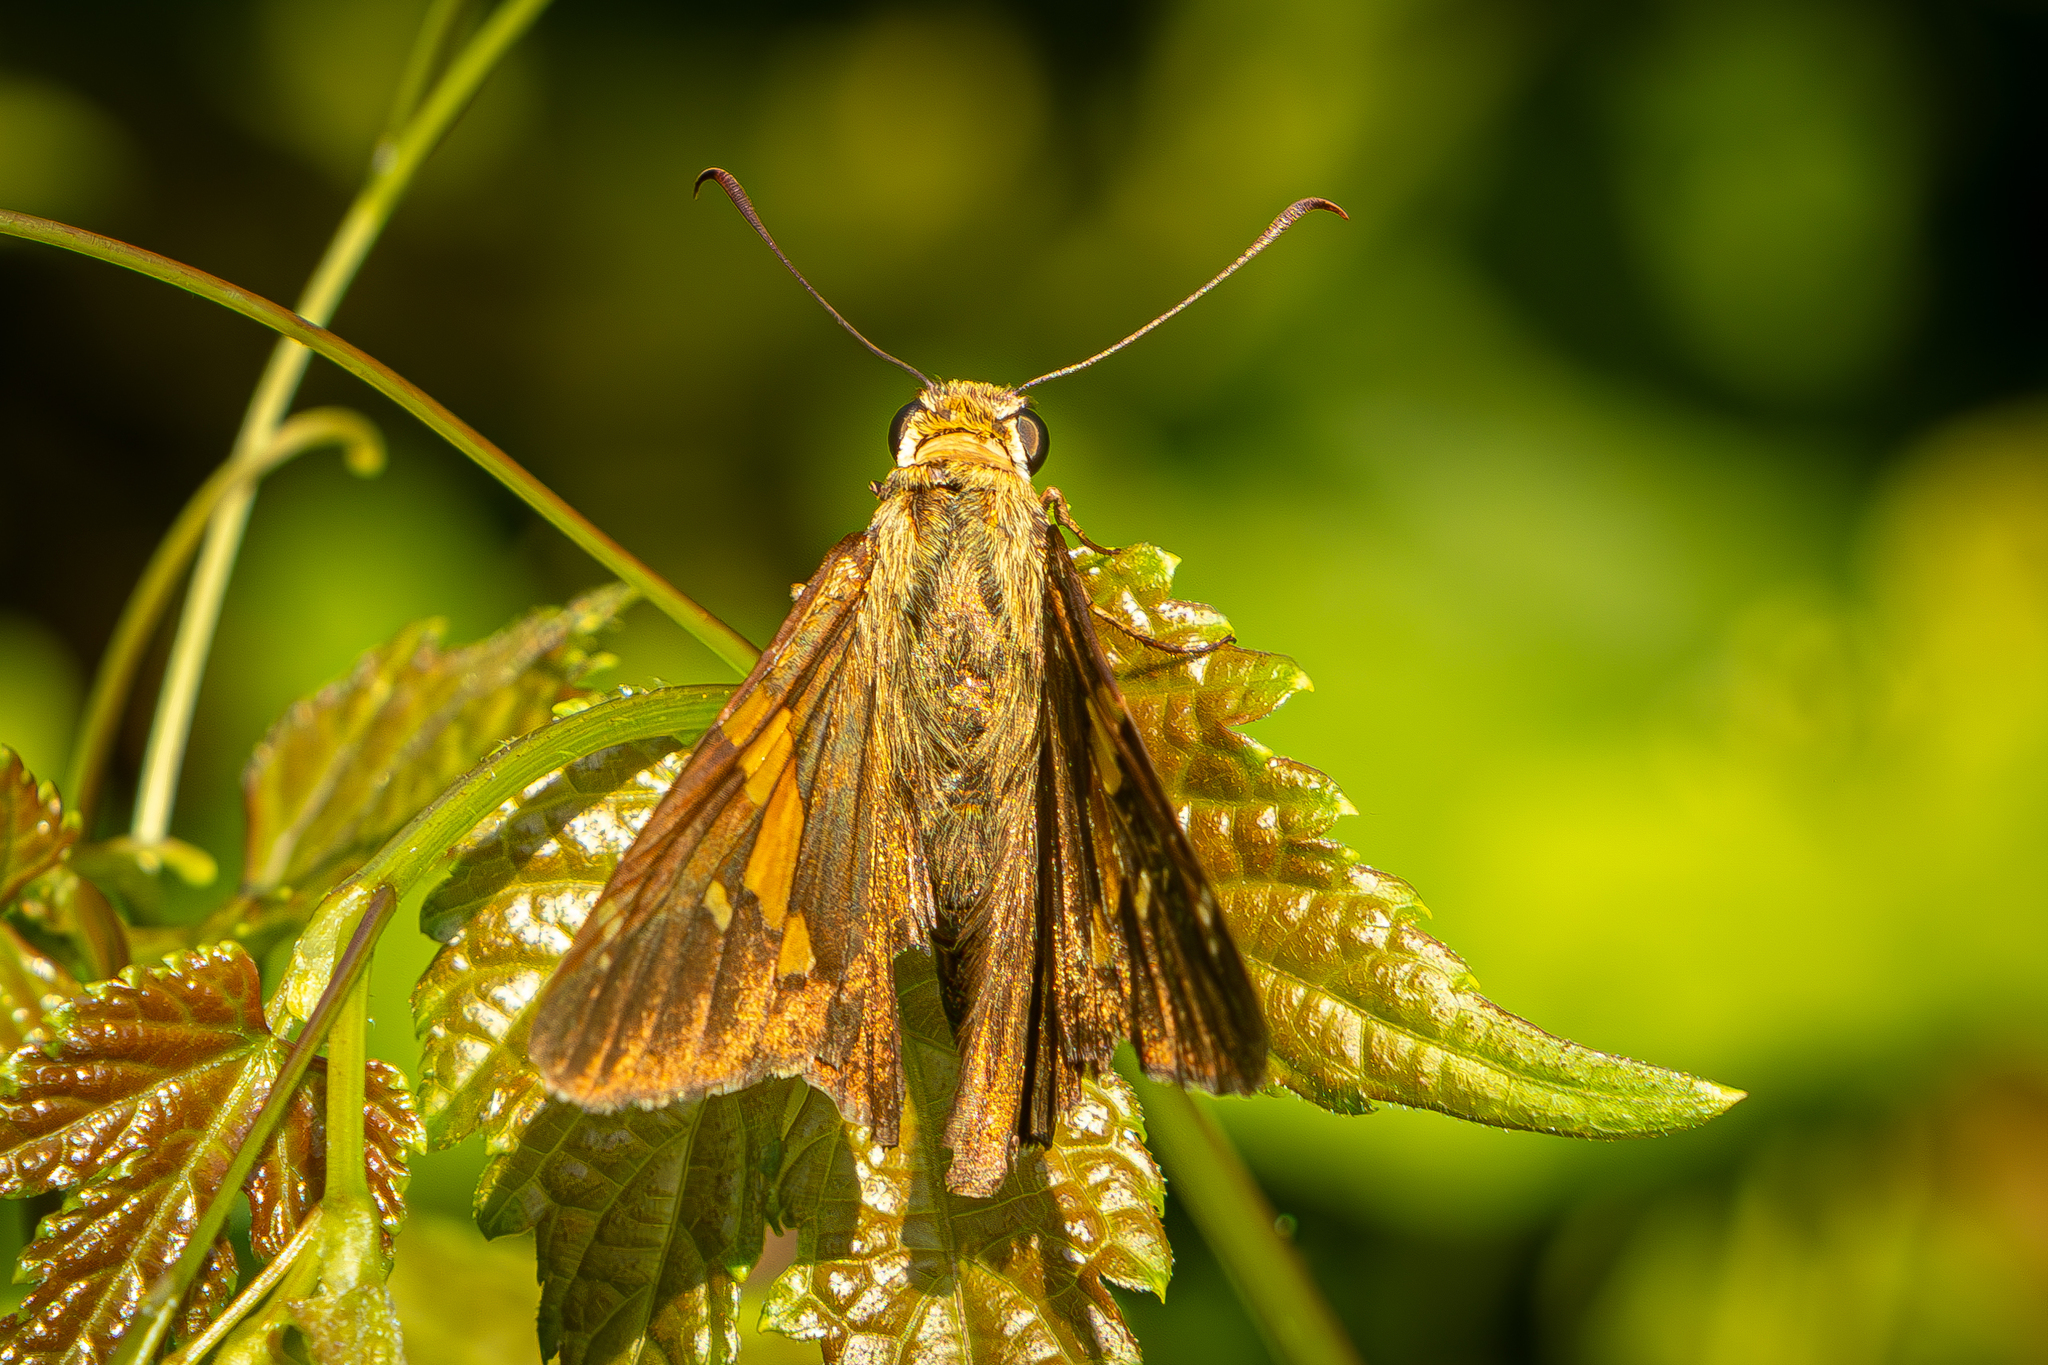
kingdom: Animalia
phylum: Arthropoda
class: Insecta
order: Lepidoptera
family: Hesperiidae
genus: Epargyreus
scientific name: Epargyreus clarus
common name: Silver-spotted skipper
